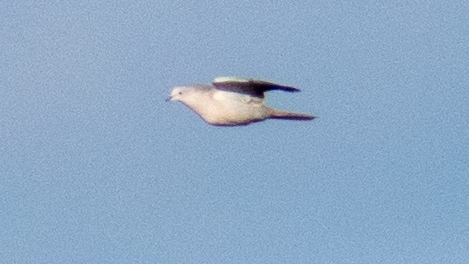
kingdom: Animalia
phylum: Chordata
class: Aves
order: Columbiformes
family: Columbidae
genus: Streptopelia
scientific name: Streptopelia decaocto
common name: Eurasian collared dove
